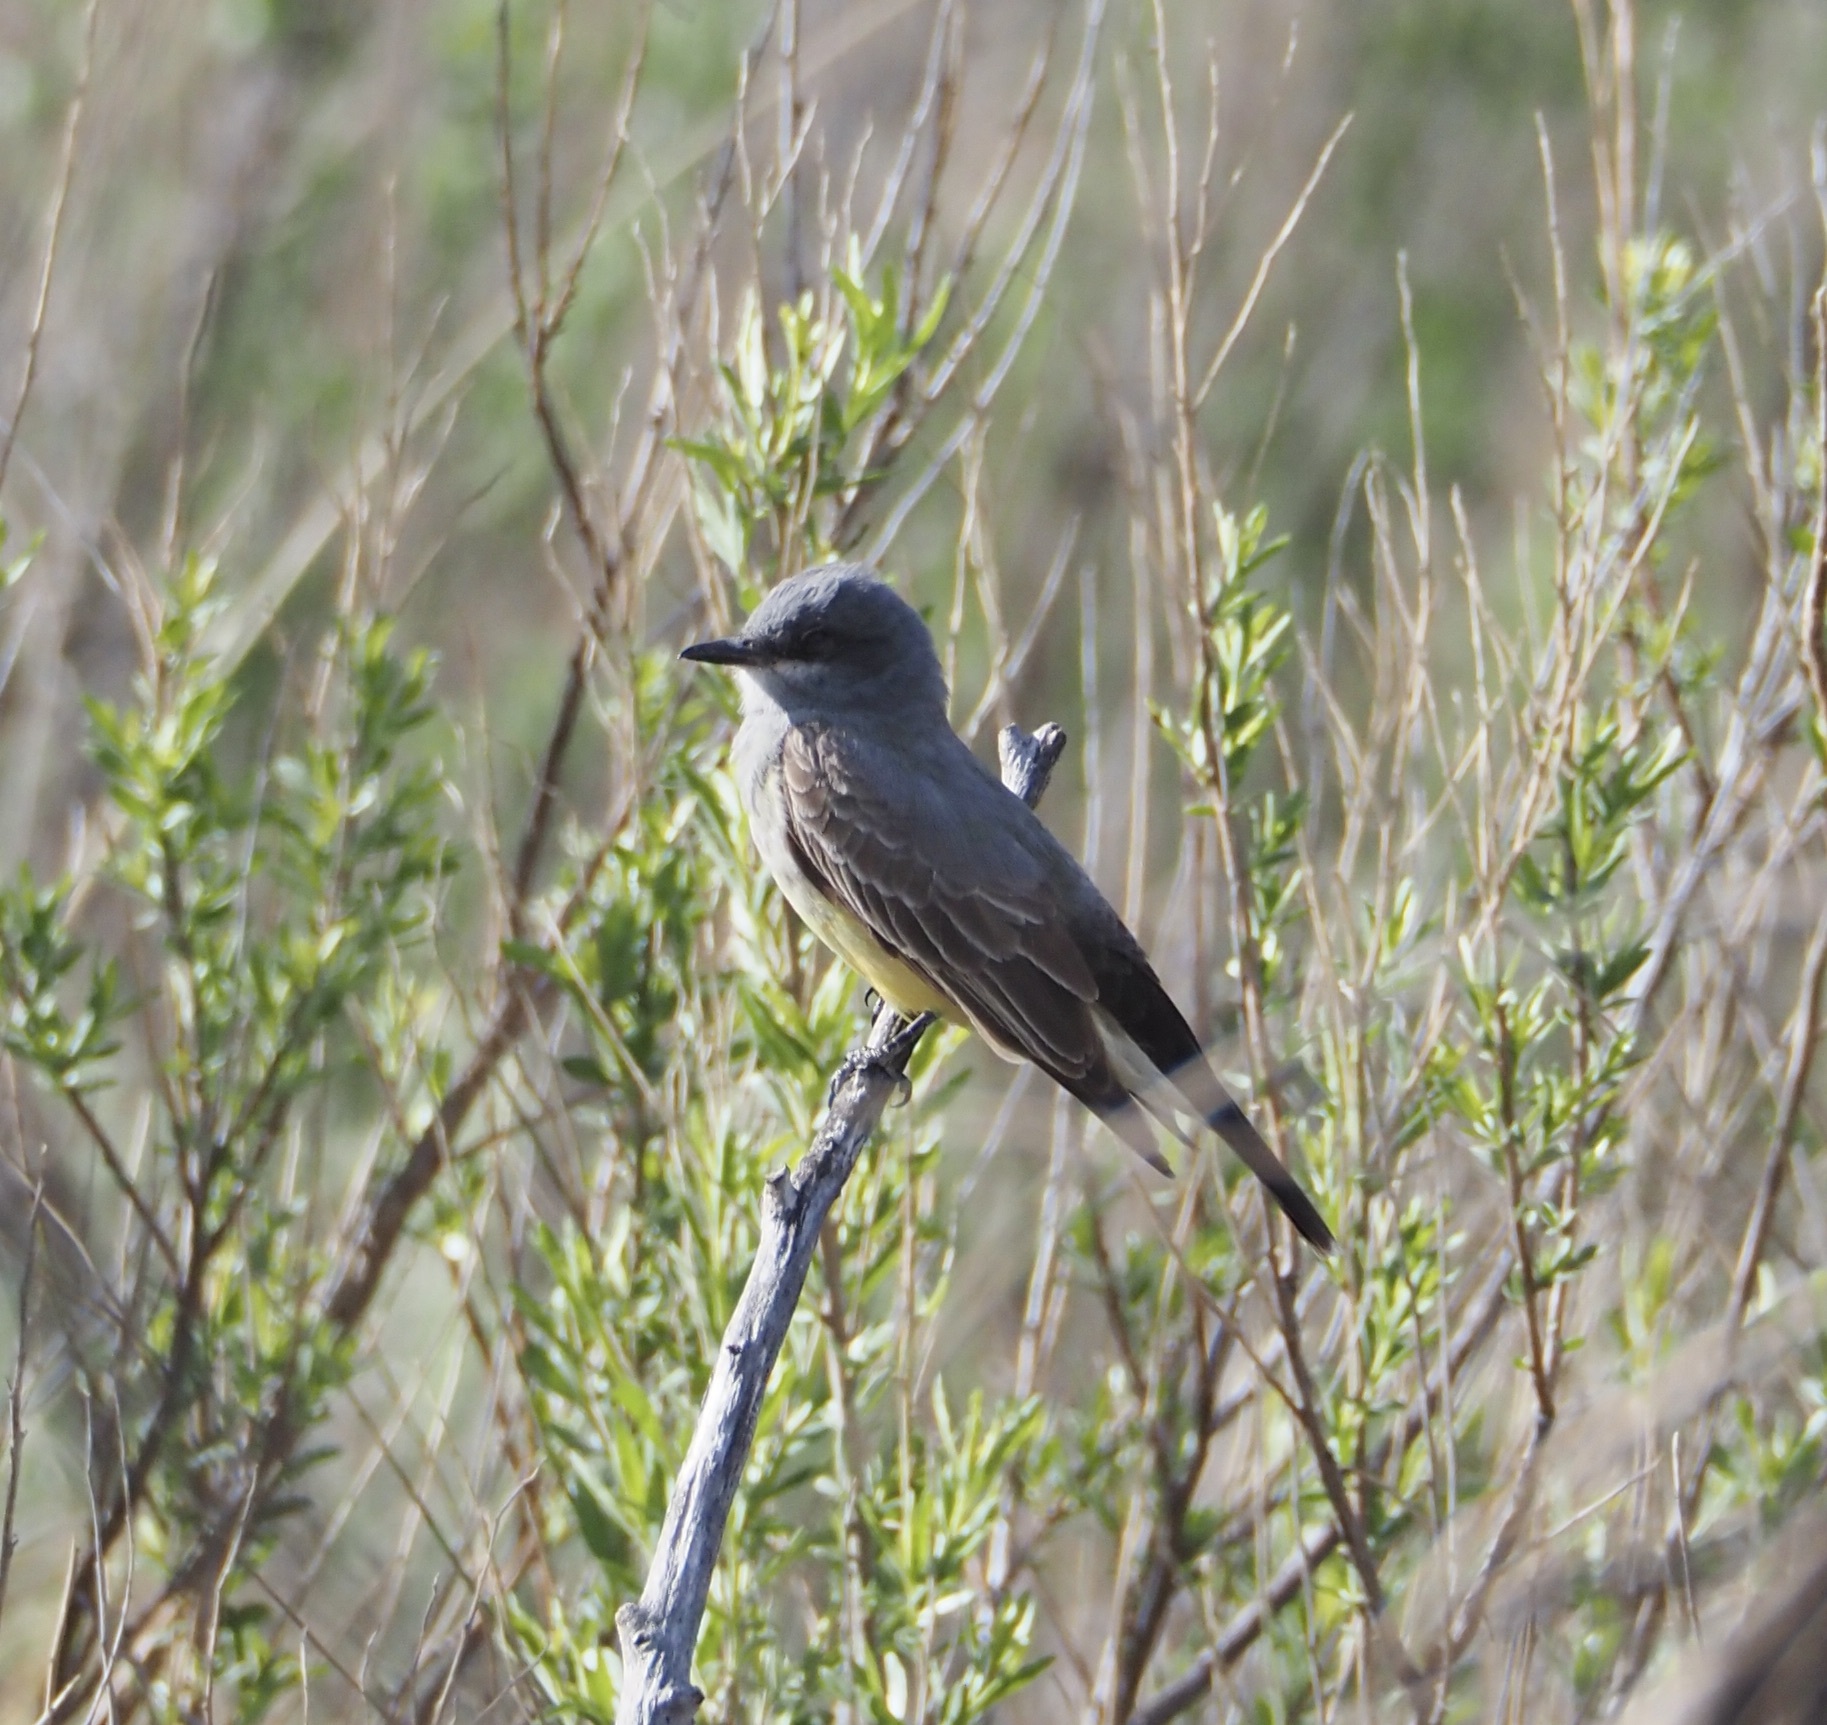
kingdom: Animalia
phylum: Chordata
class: Aves
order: Passeriformes
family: Tyrannidae
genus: Tyrannus
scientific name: Tyrannus vociferans
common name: Cassin's kingbird
